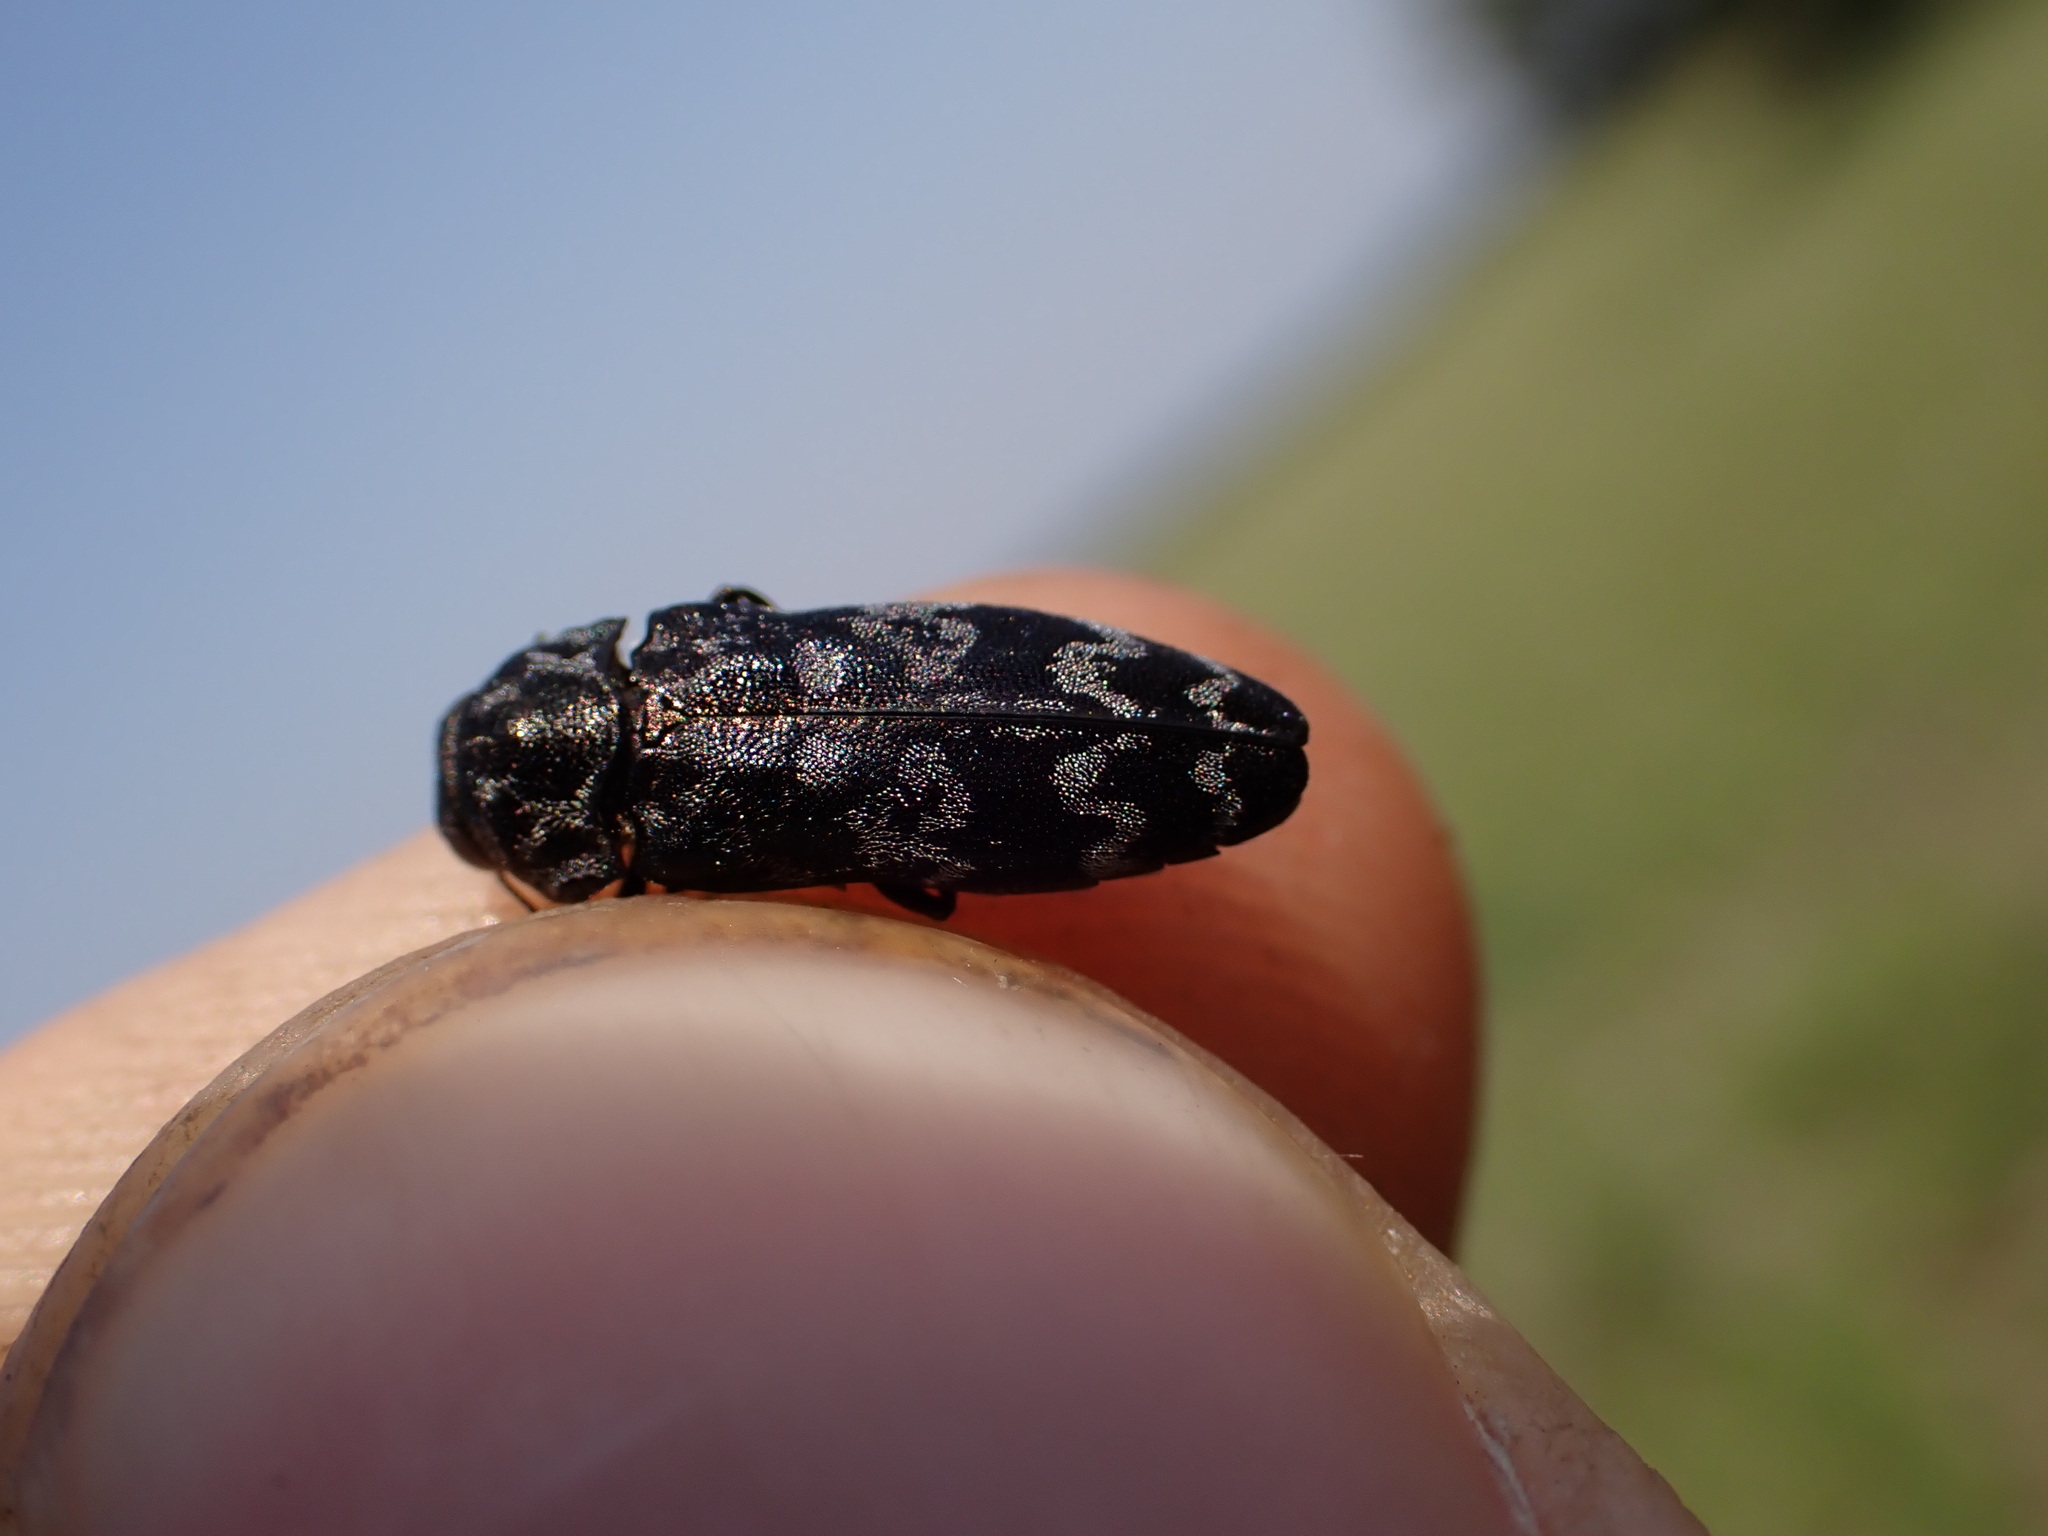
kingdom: Animalia
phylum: Arthropoda
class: Insecta
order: Coleoptera
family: Buprestidae
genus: Coraebus
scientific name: Coraebus rubi
